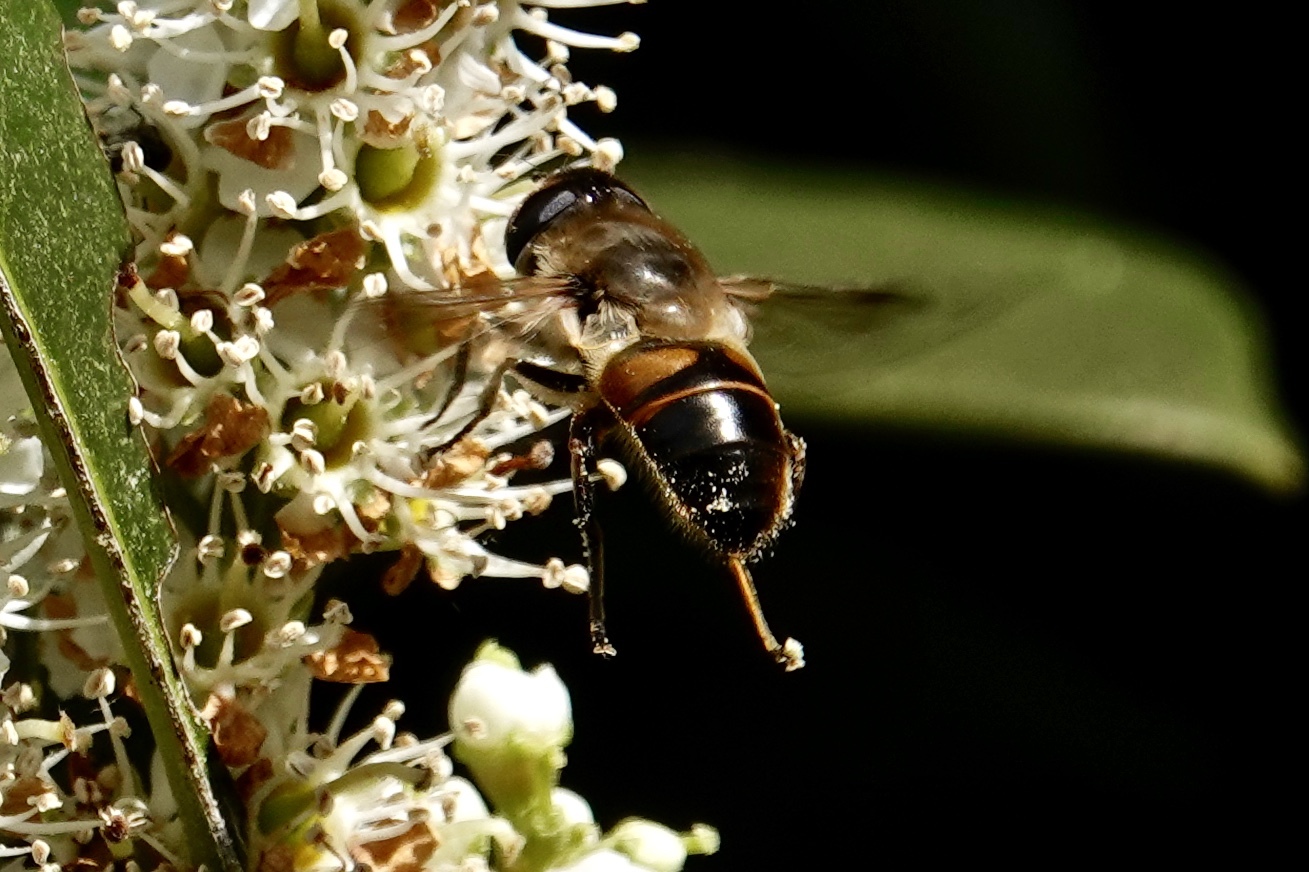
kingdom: Animalia
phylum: Arthropoda
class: Insecta
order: Diptera
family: Syrphidae
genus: Eristalis
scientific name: Eristalis tenax
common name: Drone fly
